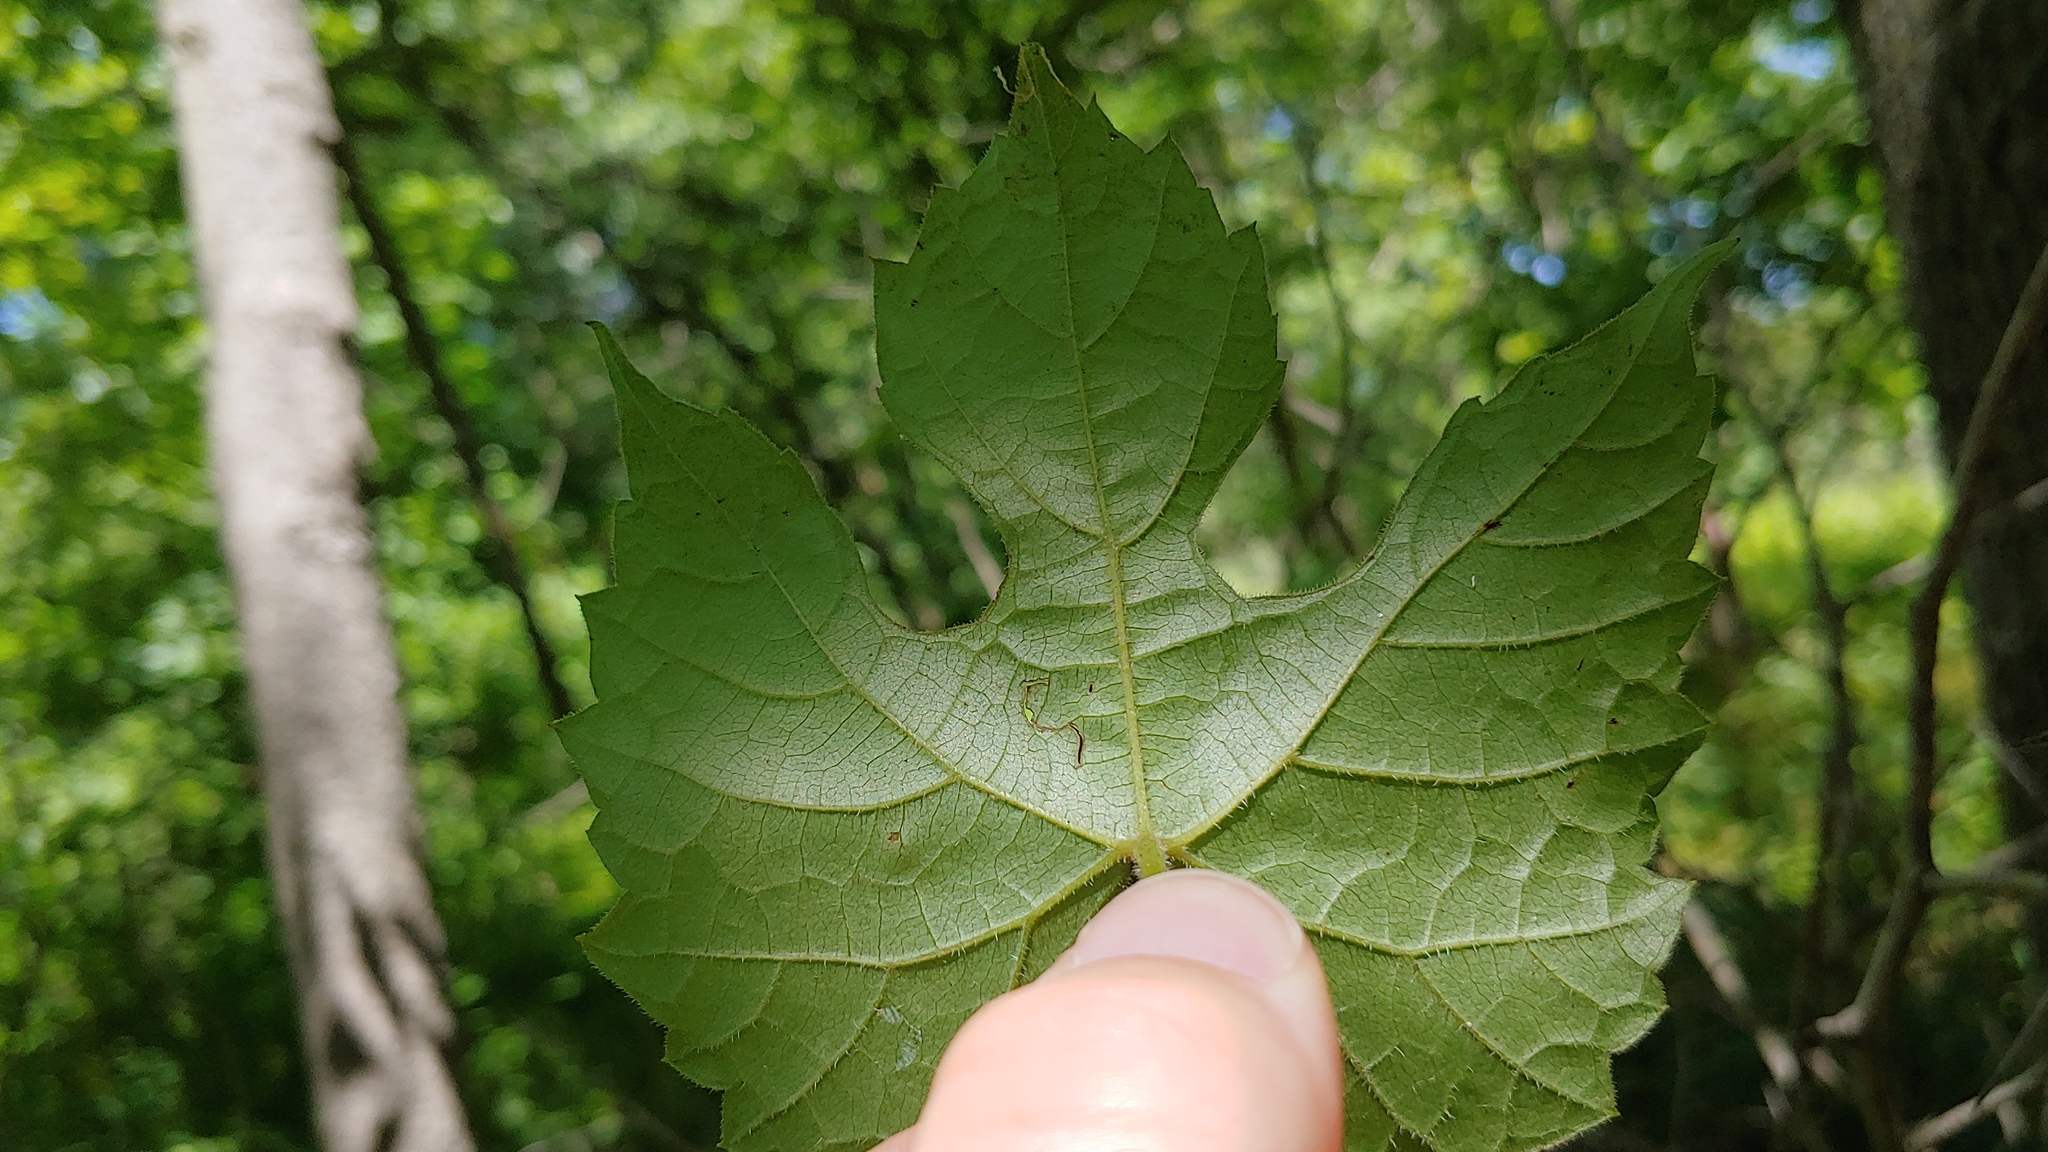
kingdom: Plantae
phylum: Tracheophyta
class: Magnoliopsida
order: Vitales
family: Vitaceae
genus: Vitis
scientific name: Vitis riparia
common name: Frost grape
